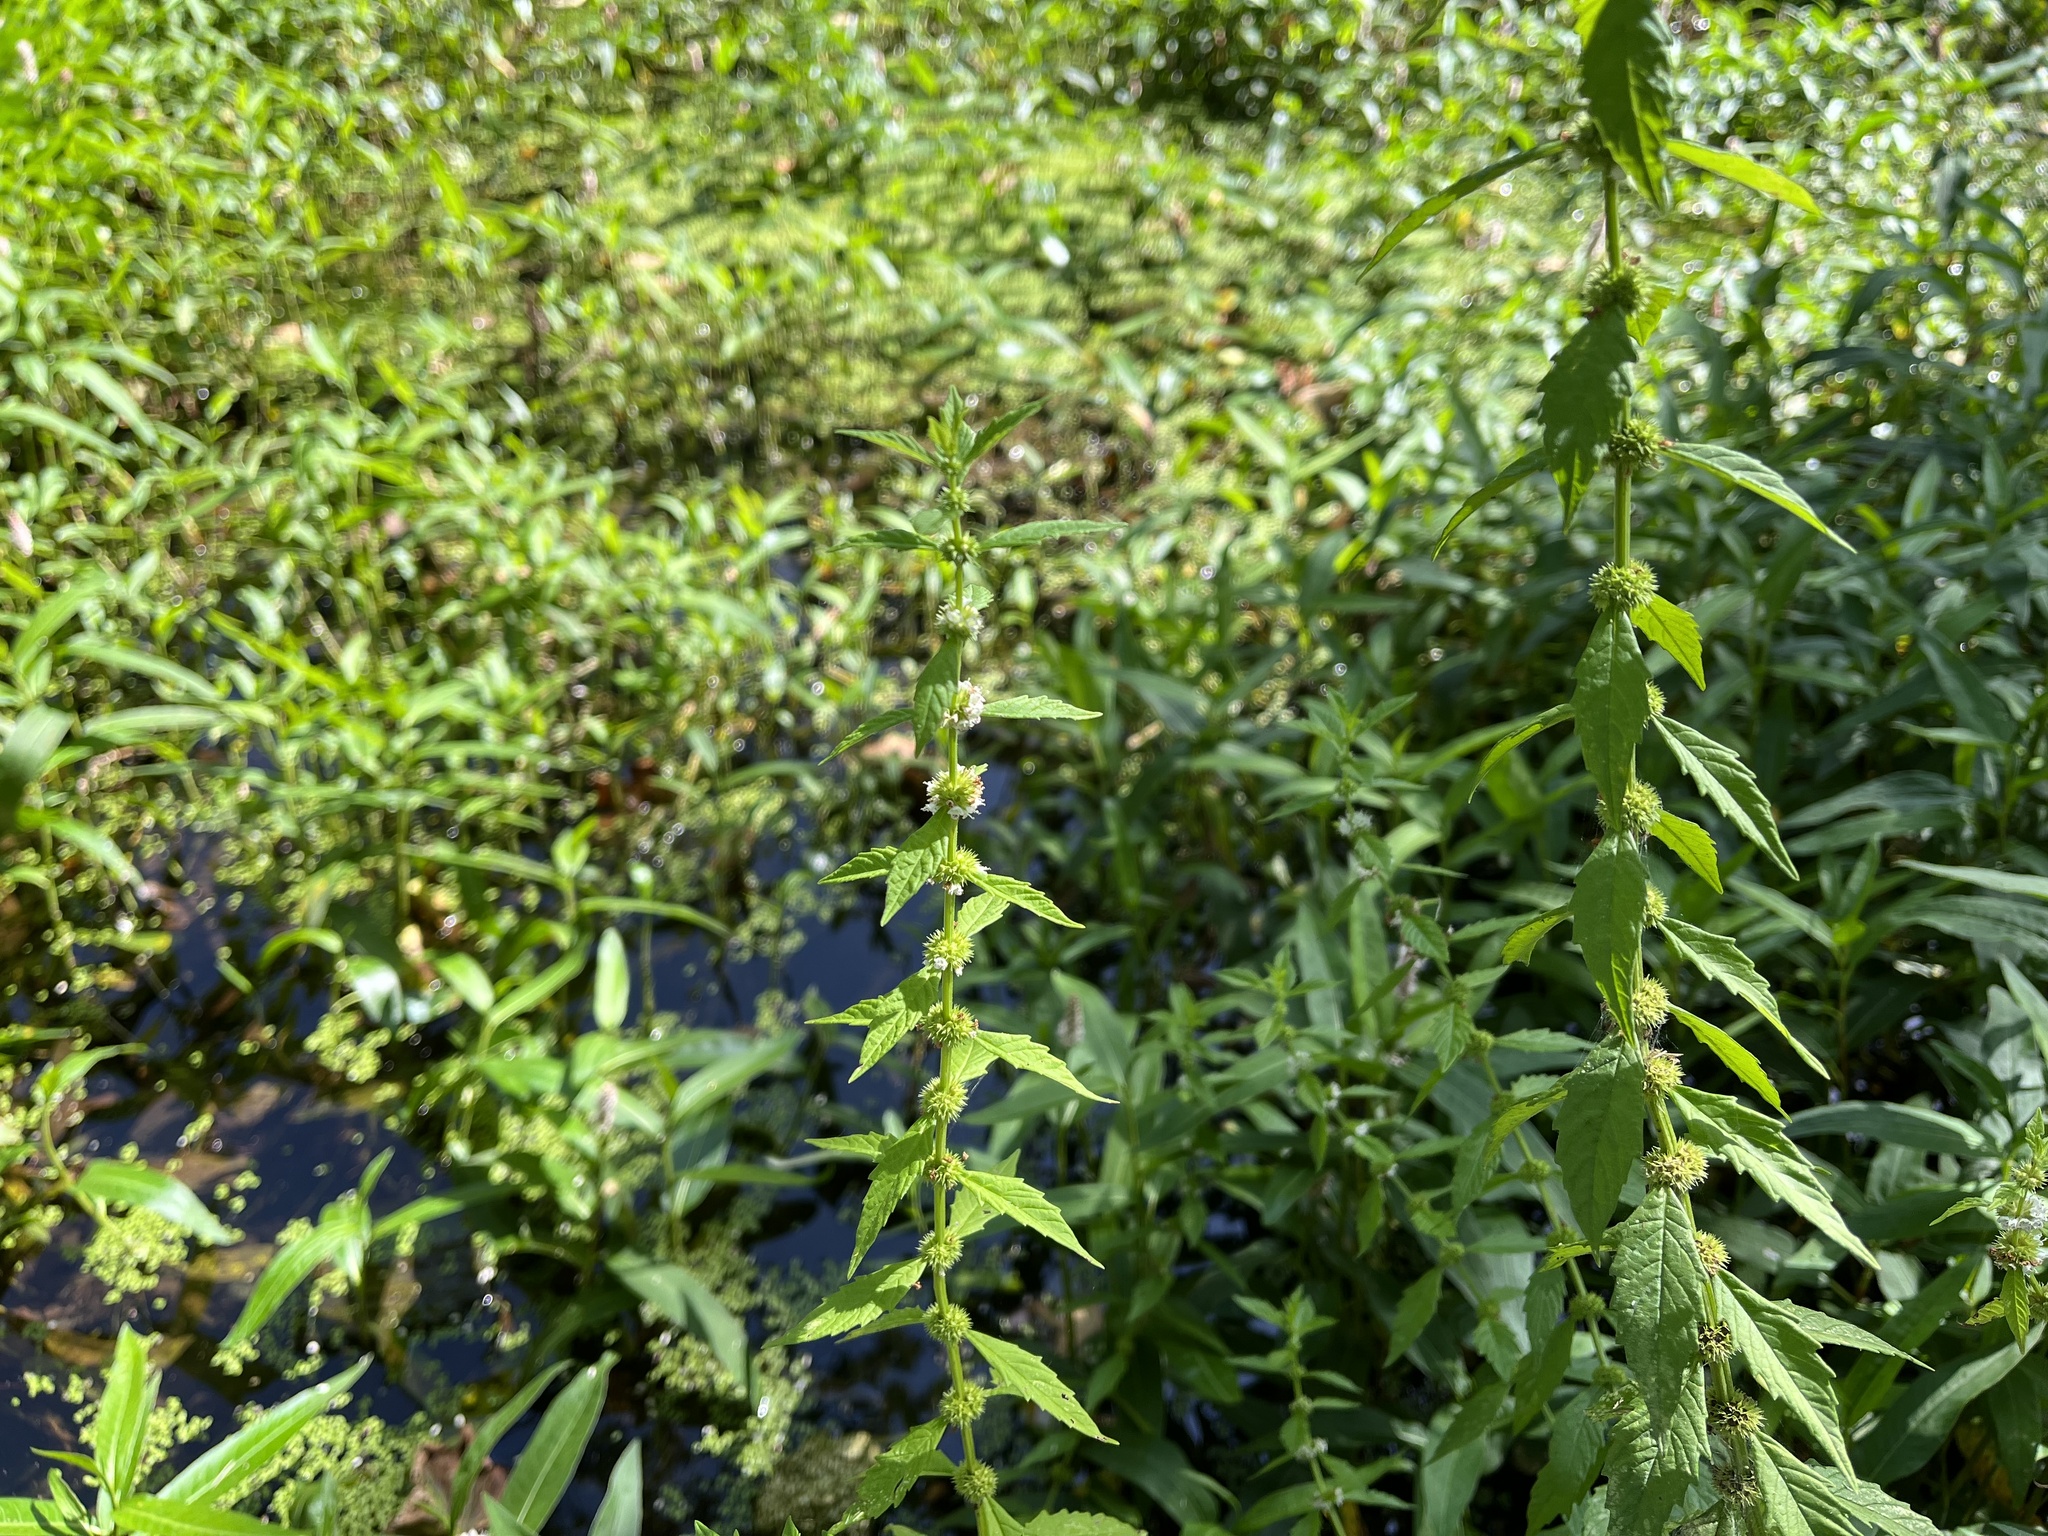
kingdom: Plantae
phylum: Tracheophyta
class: Magnoliopsida
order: Lamiales
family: Lamiaceae
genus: Lycopus
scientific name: Lycopus europaeus
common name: European bugleweed
